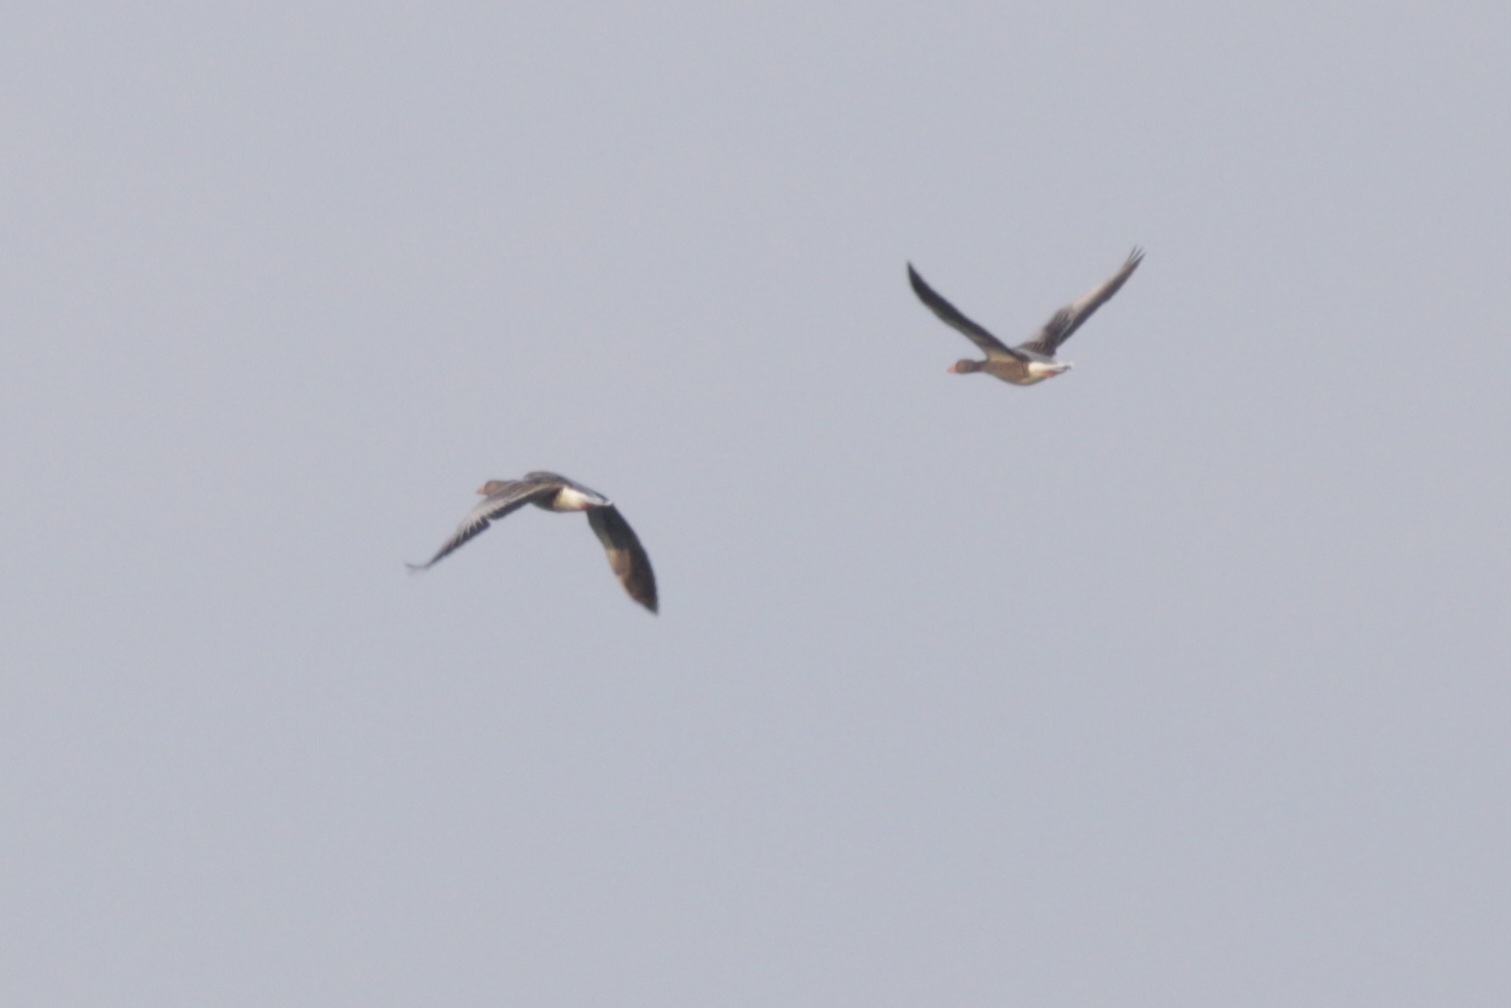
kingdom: Animalia
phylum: Chordata
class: Aves
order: Anseriformes
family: Anatidae
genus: Anser
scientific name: Anser anser
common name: Greylag goose
